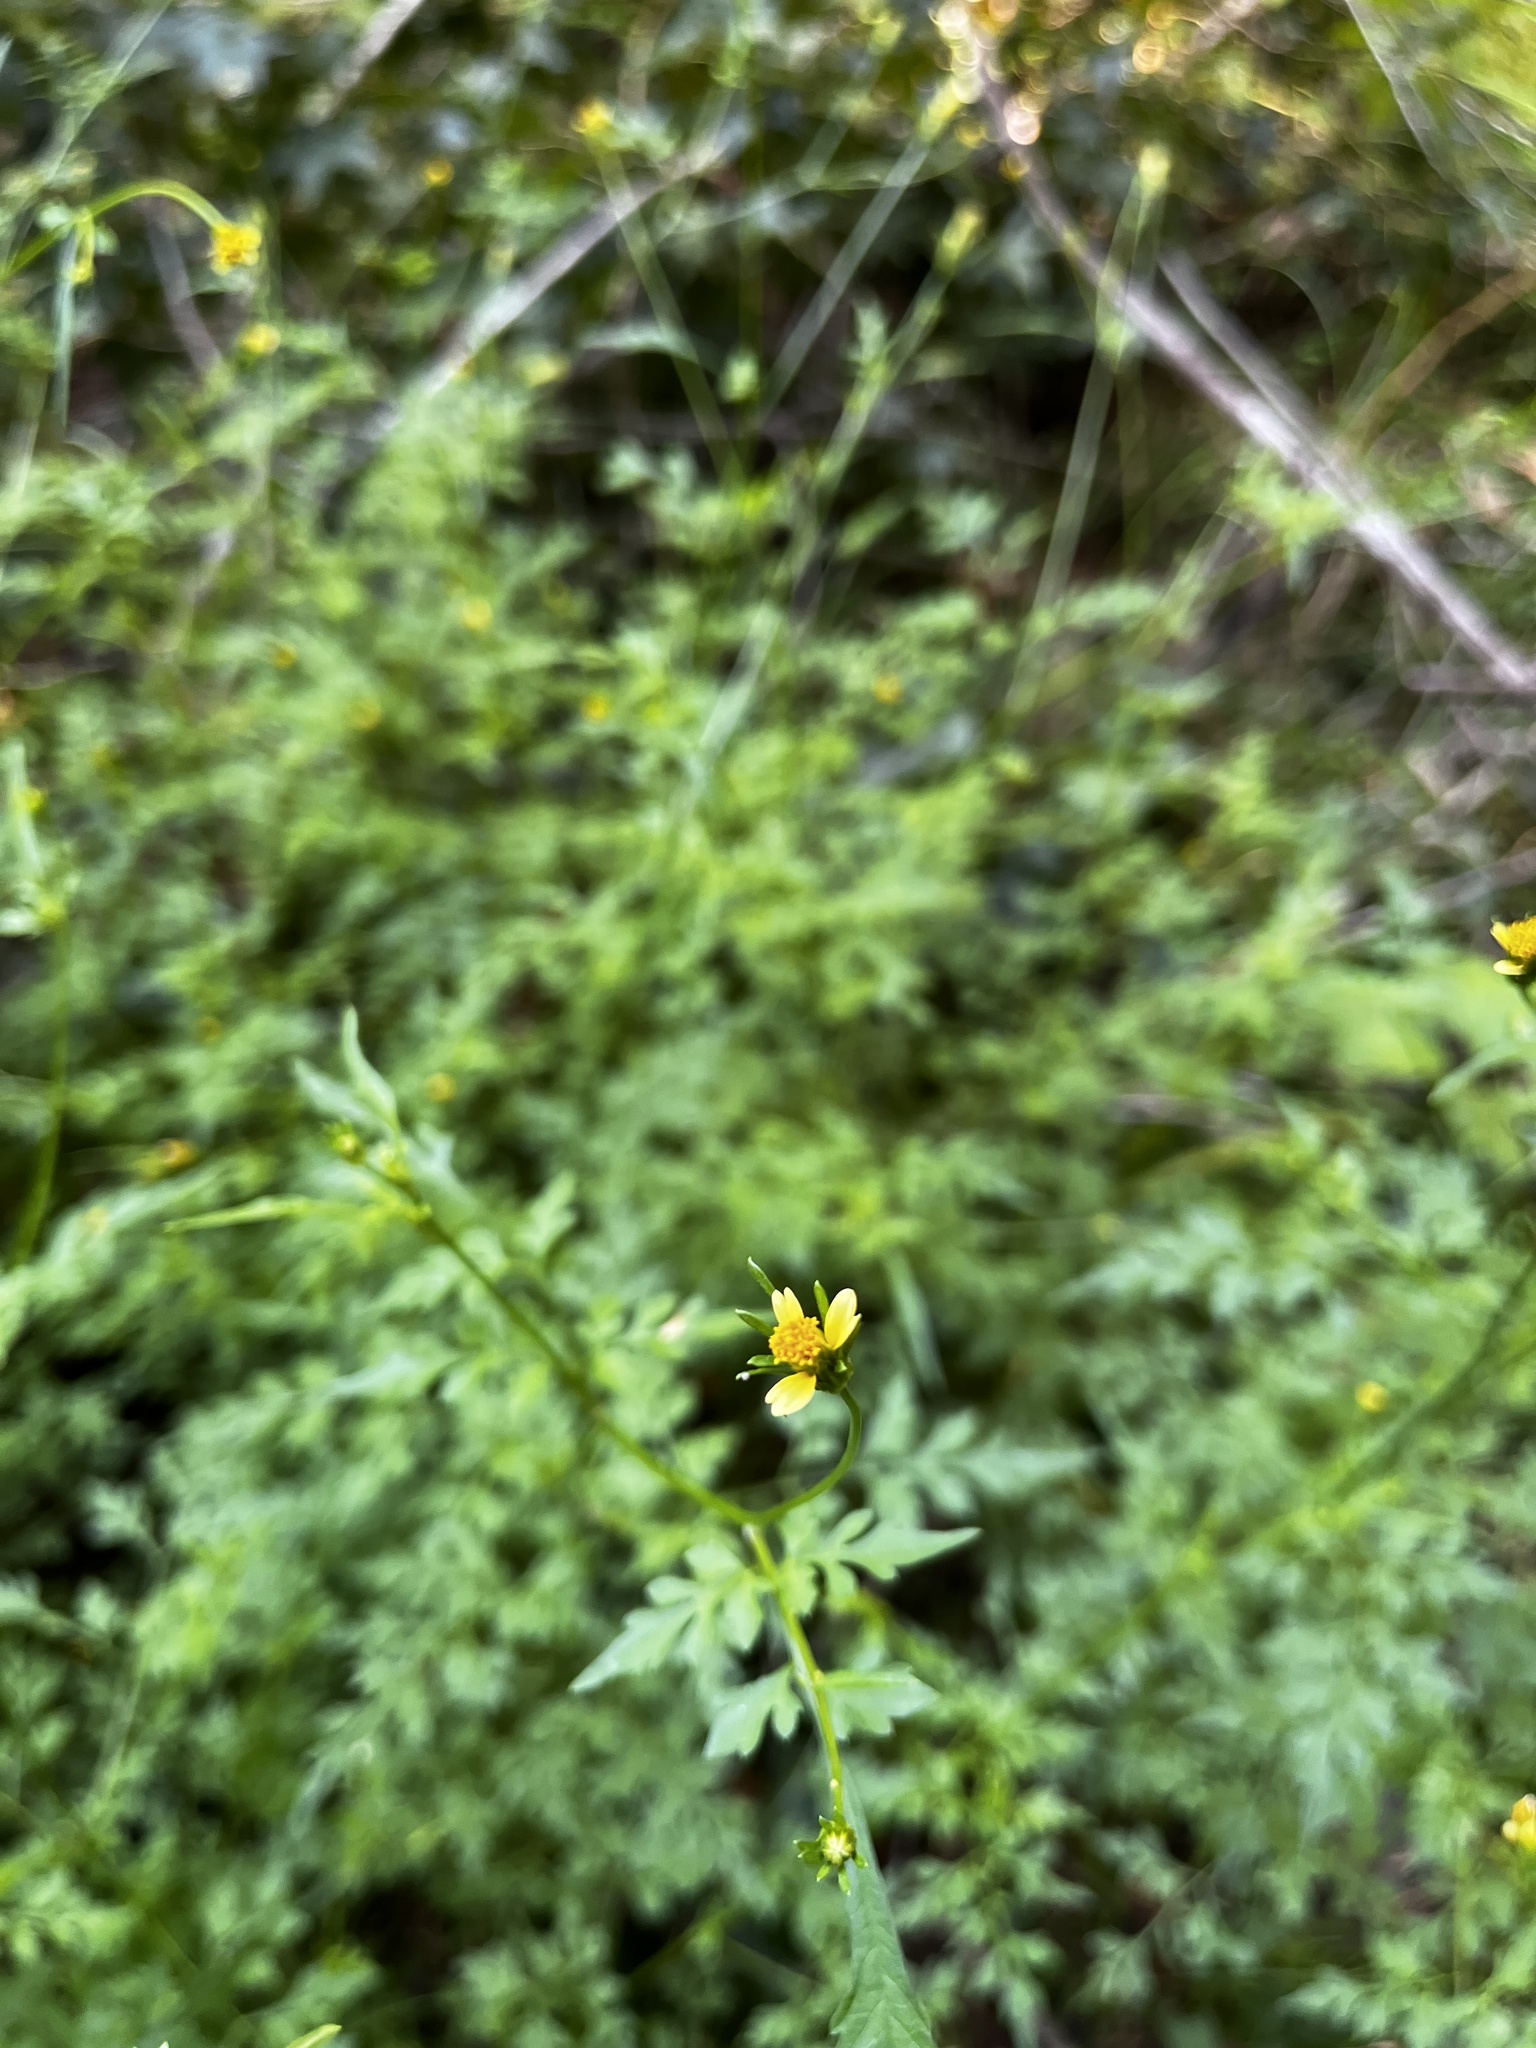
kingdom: Plantae
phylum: Tracheophyta
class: Magnoliopsida
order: Asterales
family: Asteraceae
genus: Bidens
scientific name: Bidens bipinnata
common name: Spanish-needles
